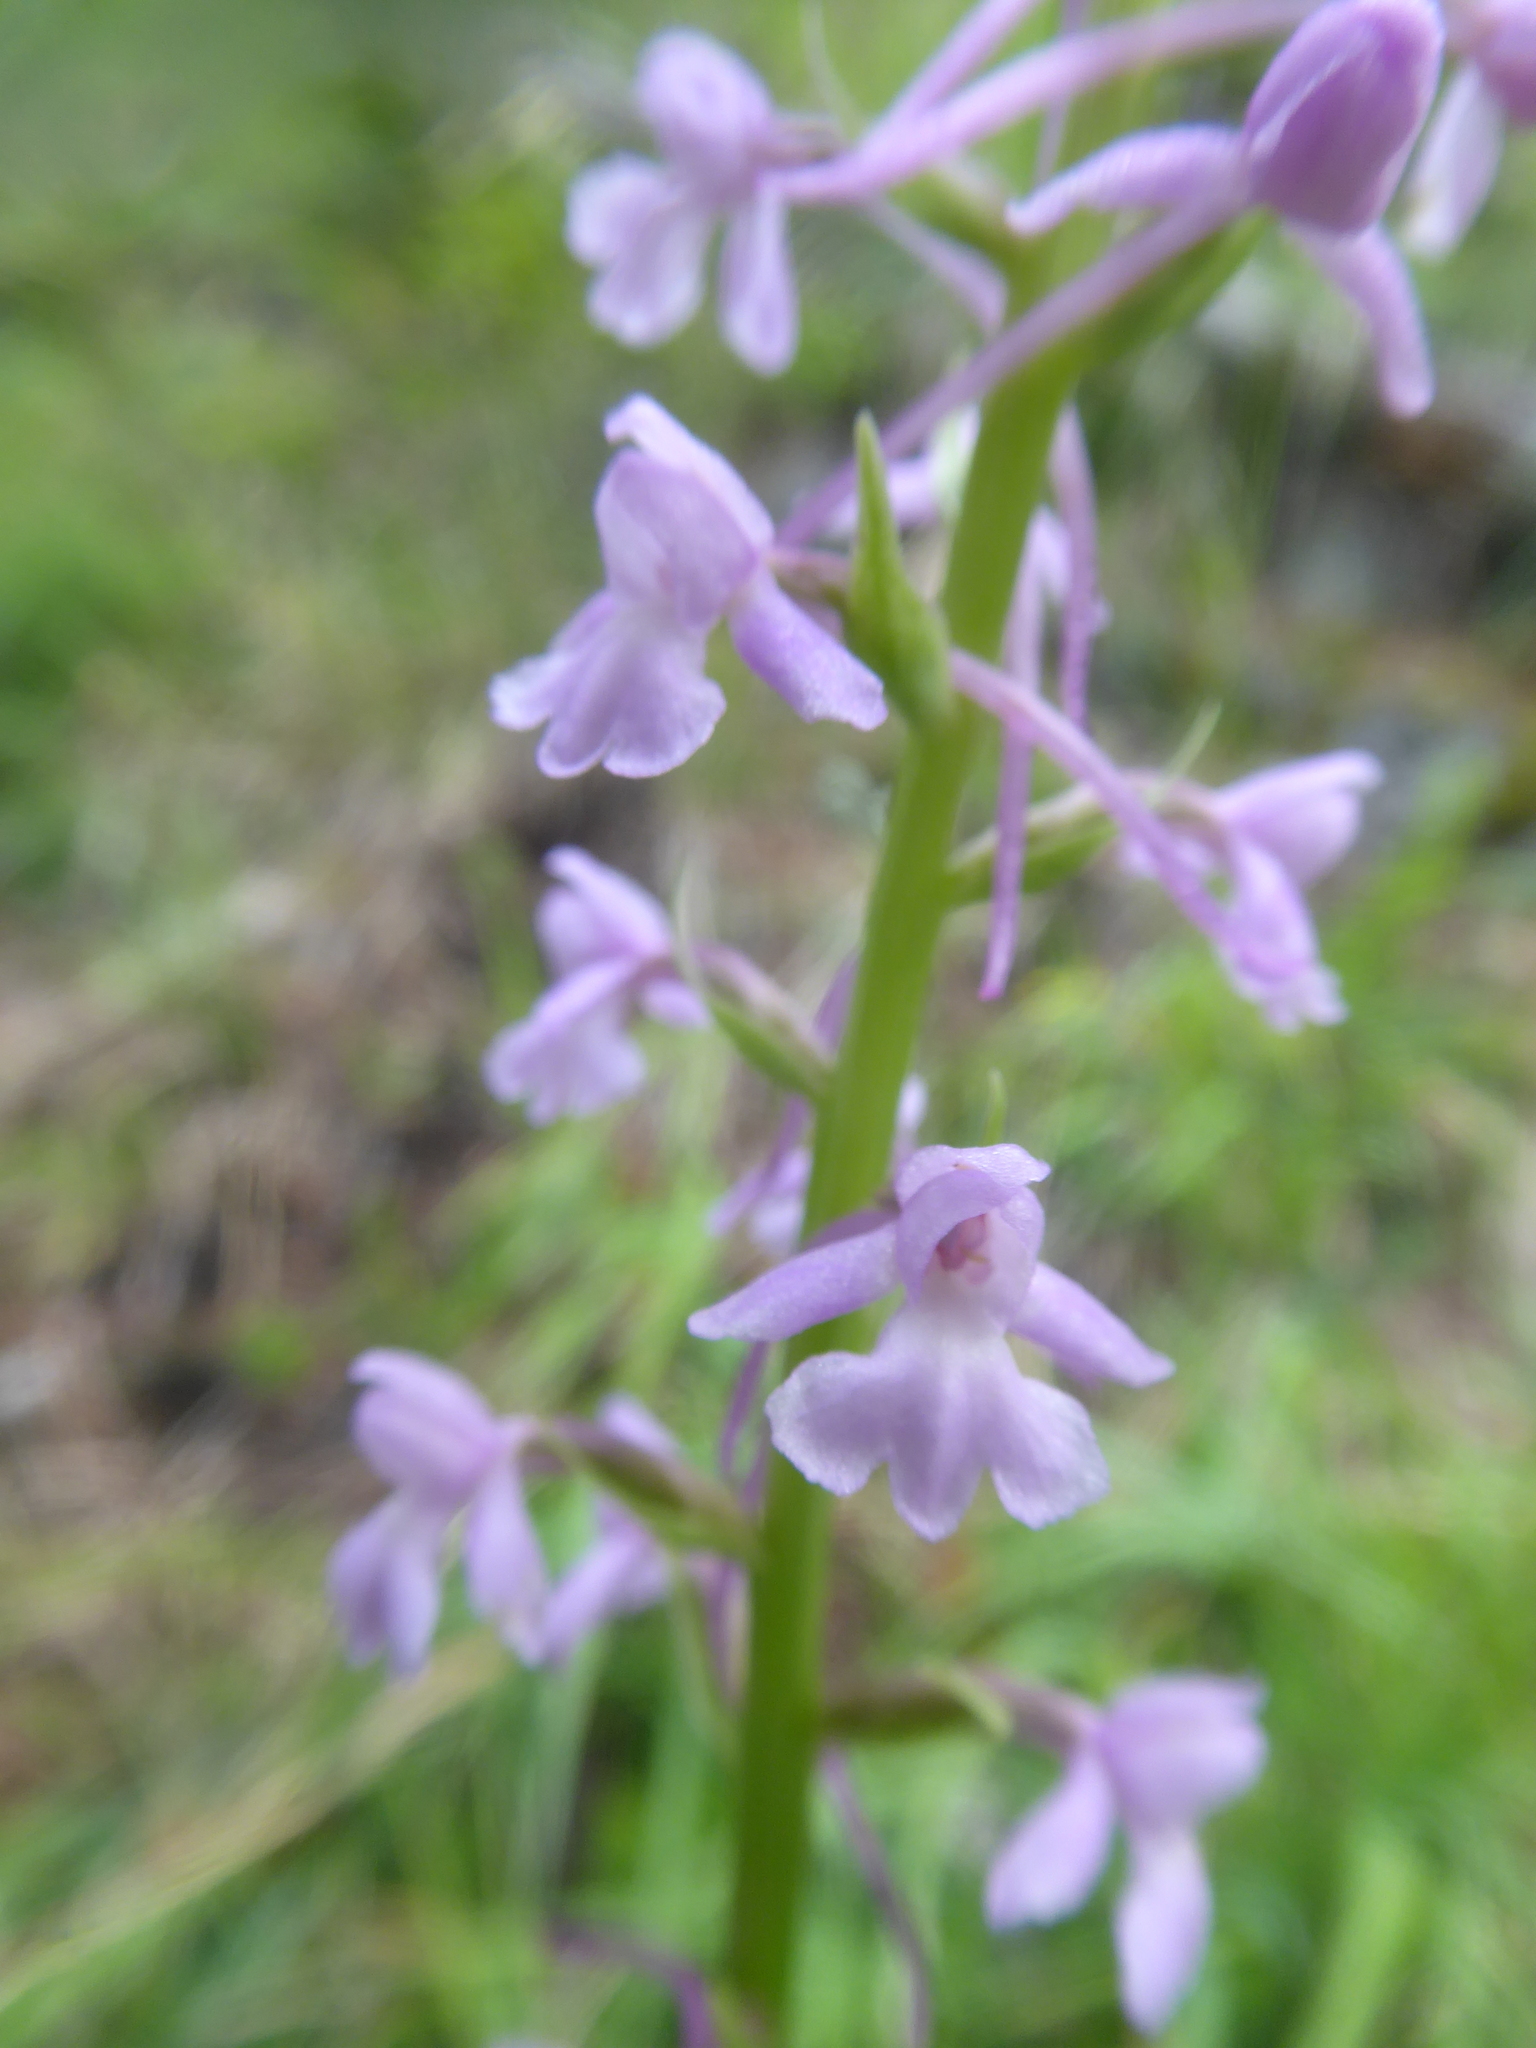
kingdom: Plantae
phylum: Tracheophyta
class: Liliopsida
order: Asparagales
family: Orchidaceae
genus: Gymnadenia
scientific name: Gymnadenia conopsea
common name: Fragrant orchid
